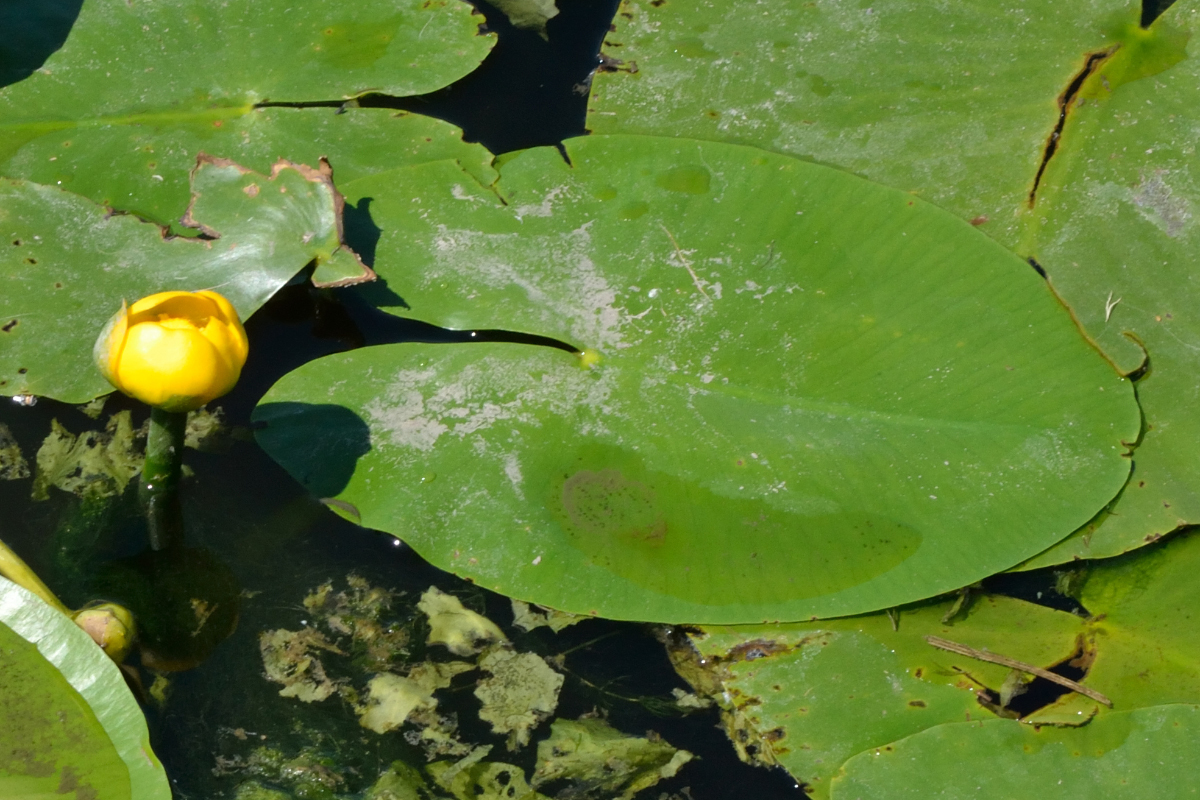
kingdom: Plantae
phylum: Tracheophyta
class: Magnoliopsida
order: Nymphaeales
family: Nymphaeaceae
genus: Nuphar
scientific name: Nuphar lutea
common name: Yellow water-lily
